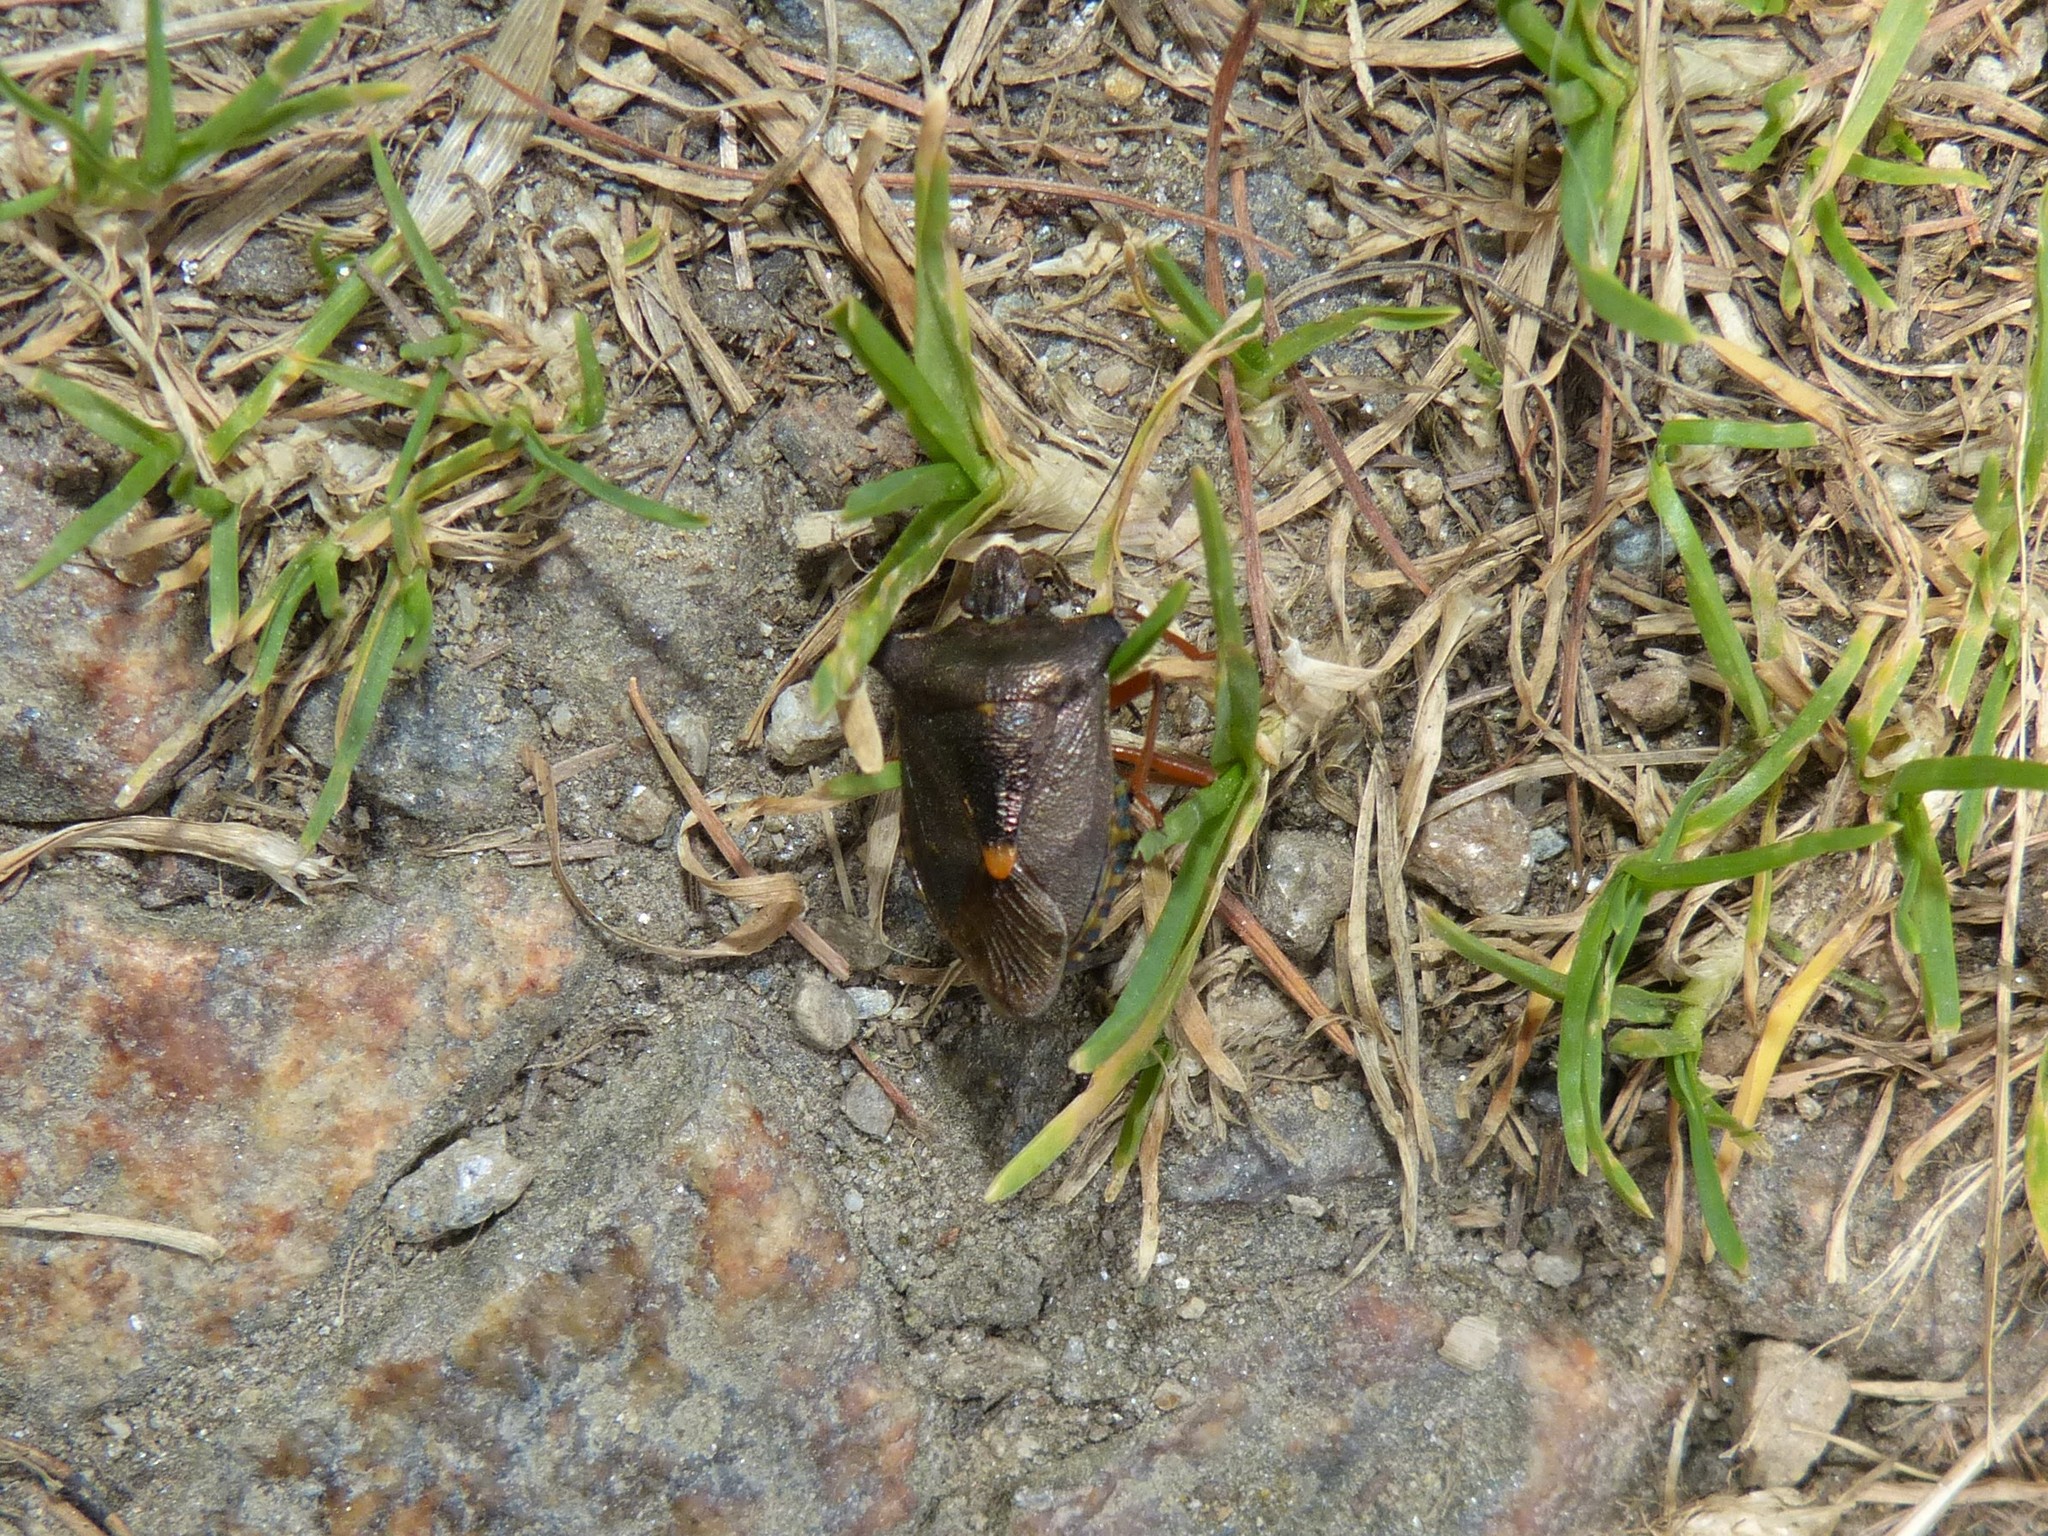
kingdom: Animalia
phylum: Arthropoda
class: Insecta
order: Hemiptera
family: Pentatomidae
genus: Pentatoma
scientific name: Pentatoma rufipes
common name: Forest bug
